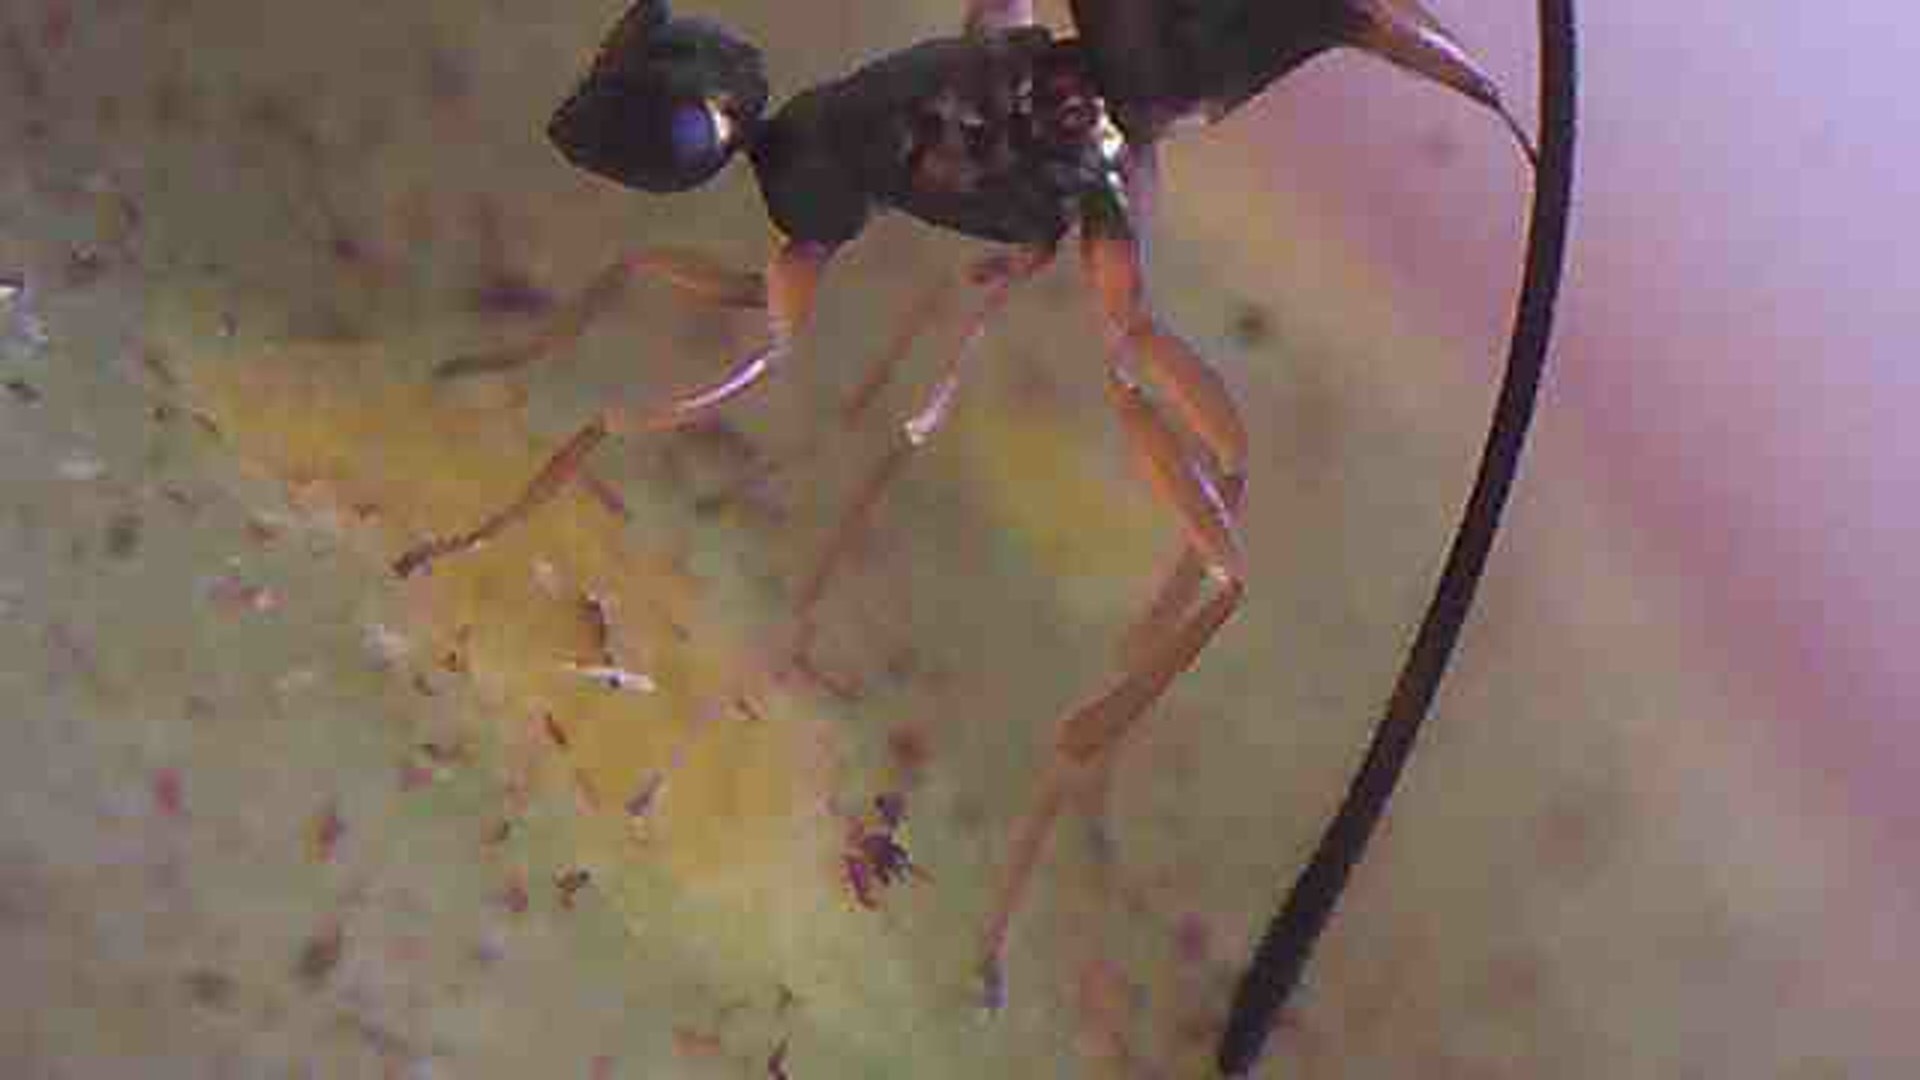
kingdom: Animalia
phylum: Arthropoda
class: Insecta
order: Hymenoptera
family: Agaonidae
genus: Sycoscapter
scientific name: Sycoscapter australis
